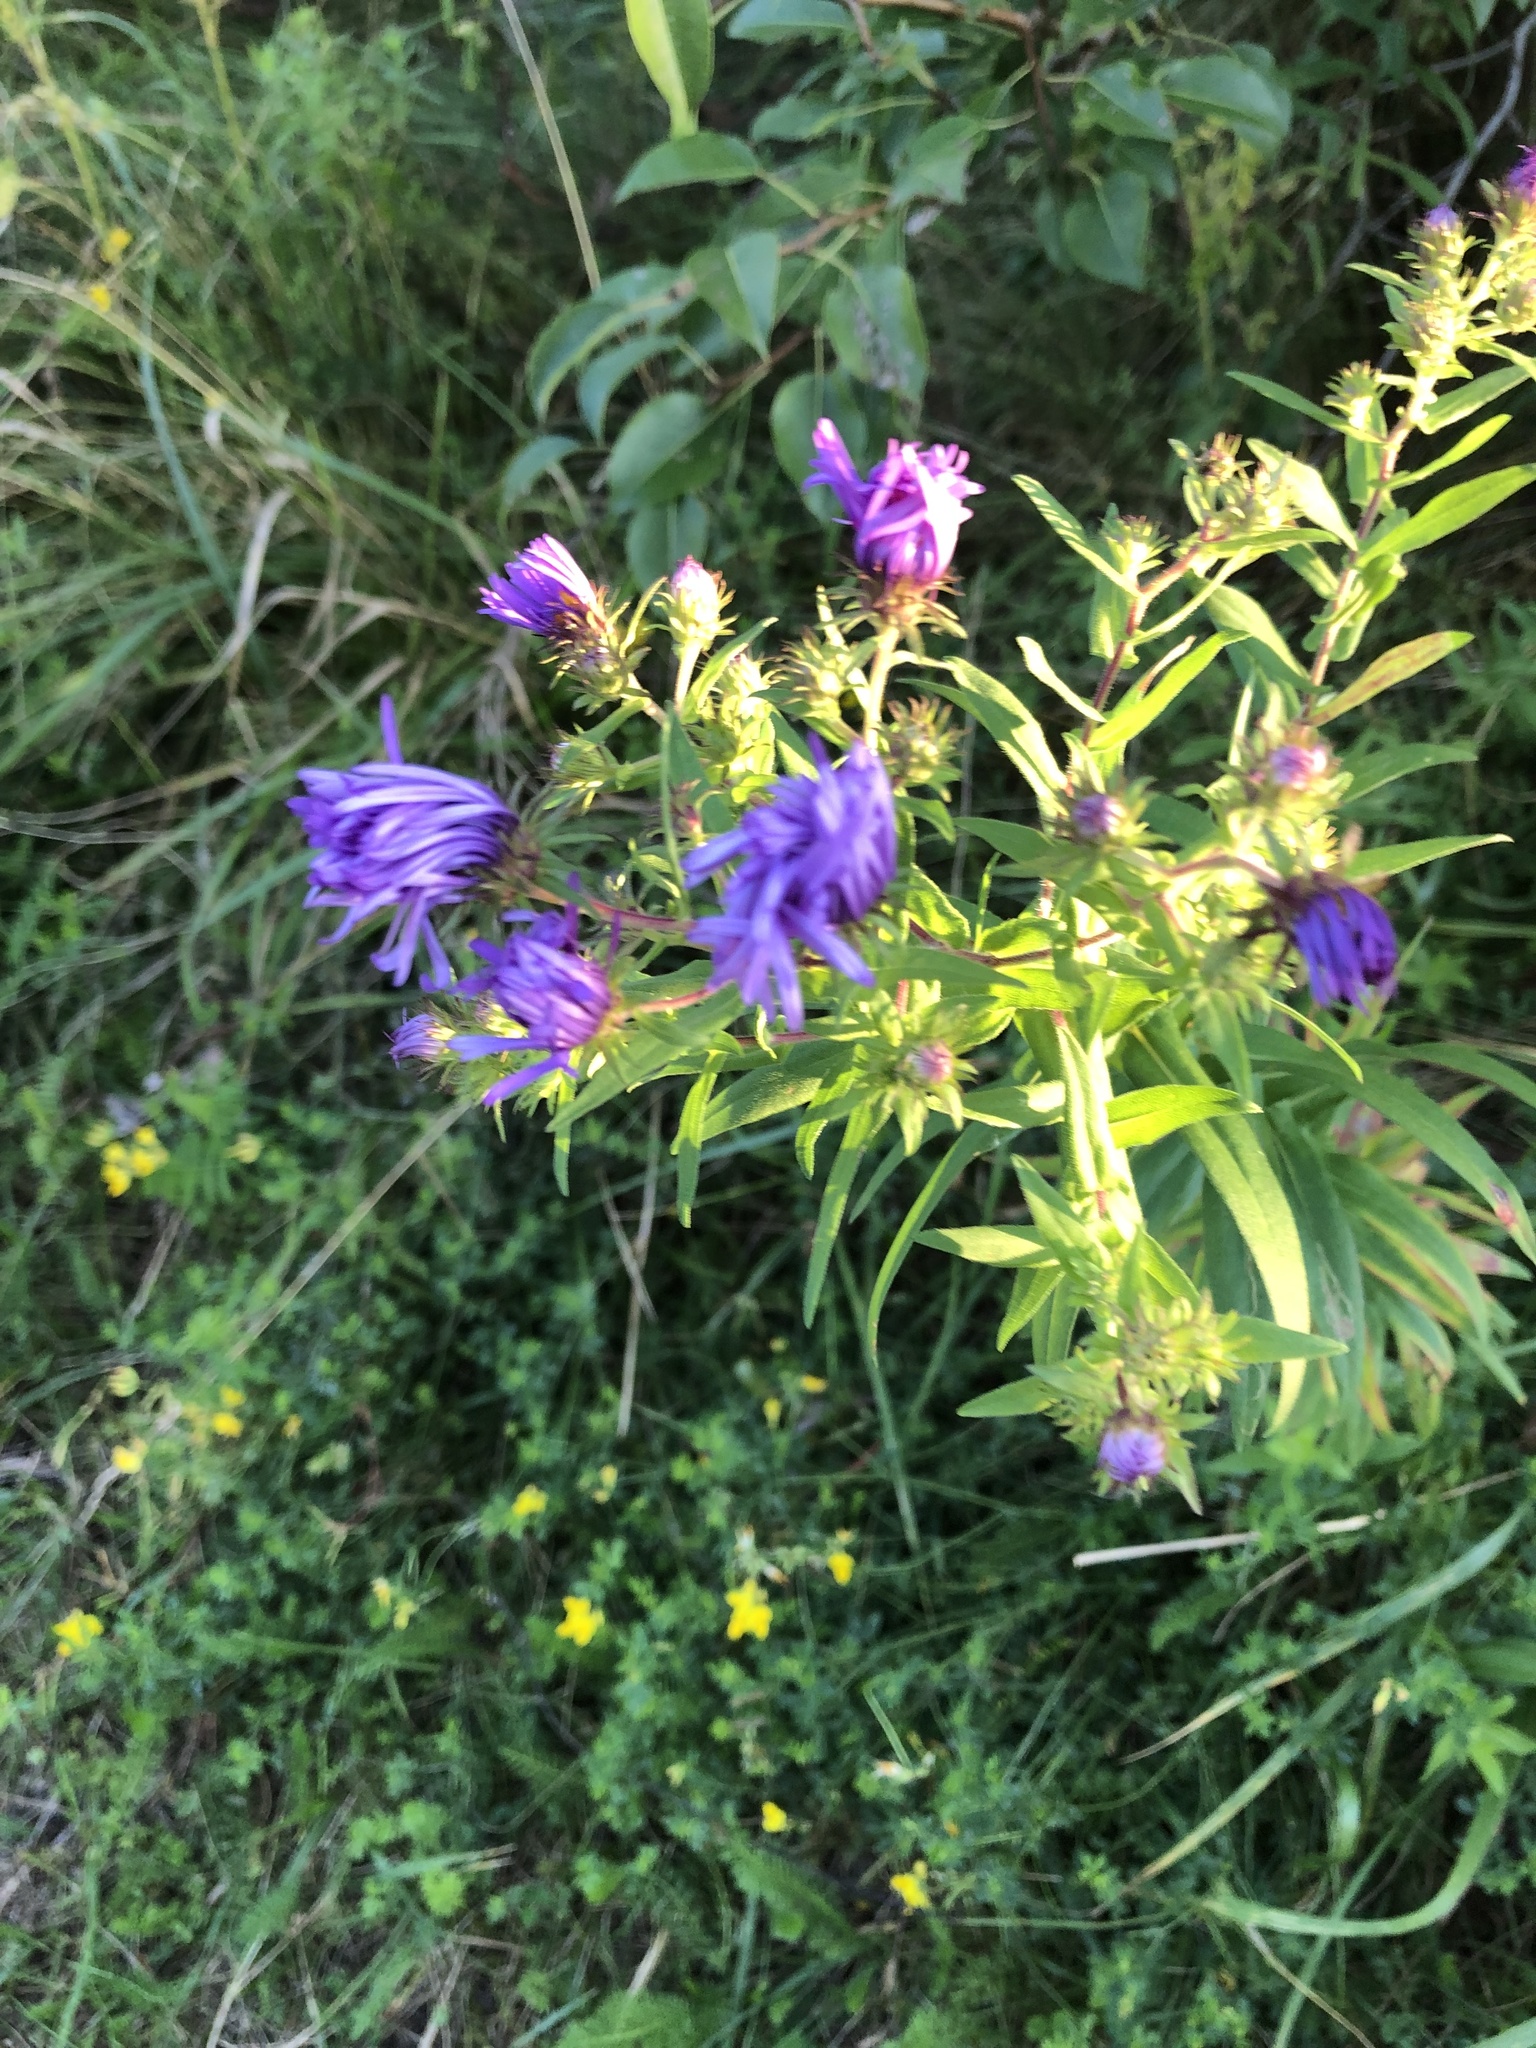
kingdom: Plantae
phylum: Tracheophyta
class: Magnoliopsida
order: Asterales
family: Asteraceae
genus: Symphyotrichum
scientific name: Symphyotrichum novae-angliae
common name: Michaelmas daisy
